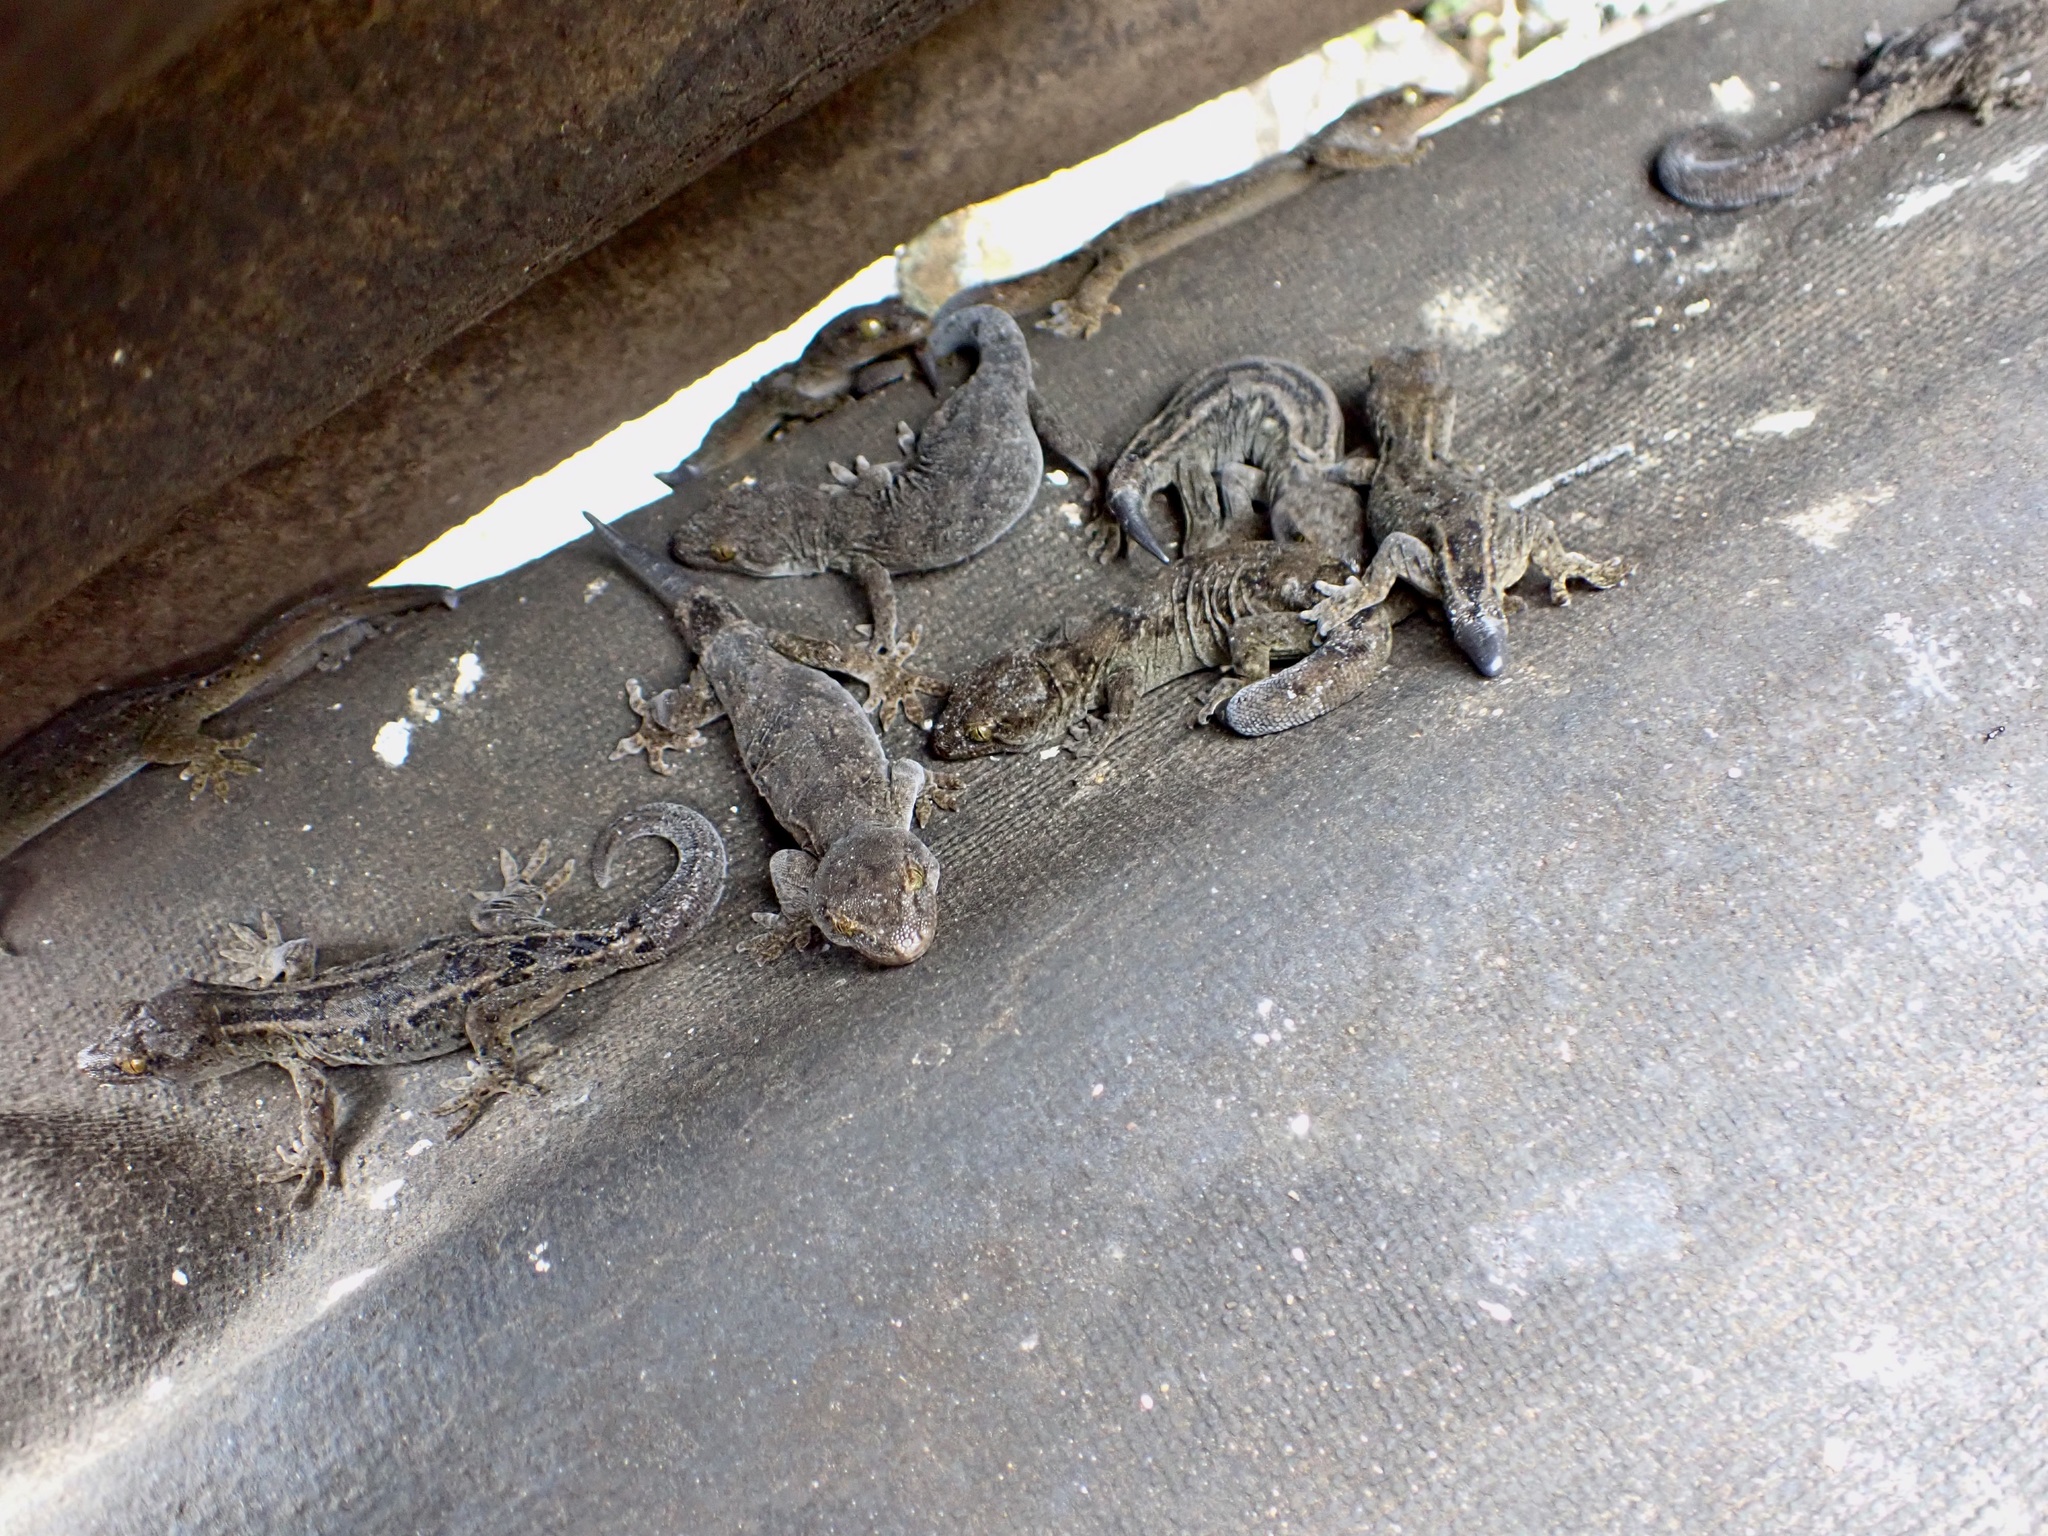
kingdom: Animalia
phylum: Chordata
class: Squamata
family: Diplodactylidae
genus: Woodworthia
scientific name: Woodworthia brunnea
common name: Canterbury gecko
